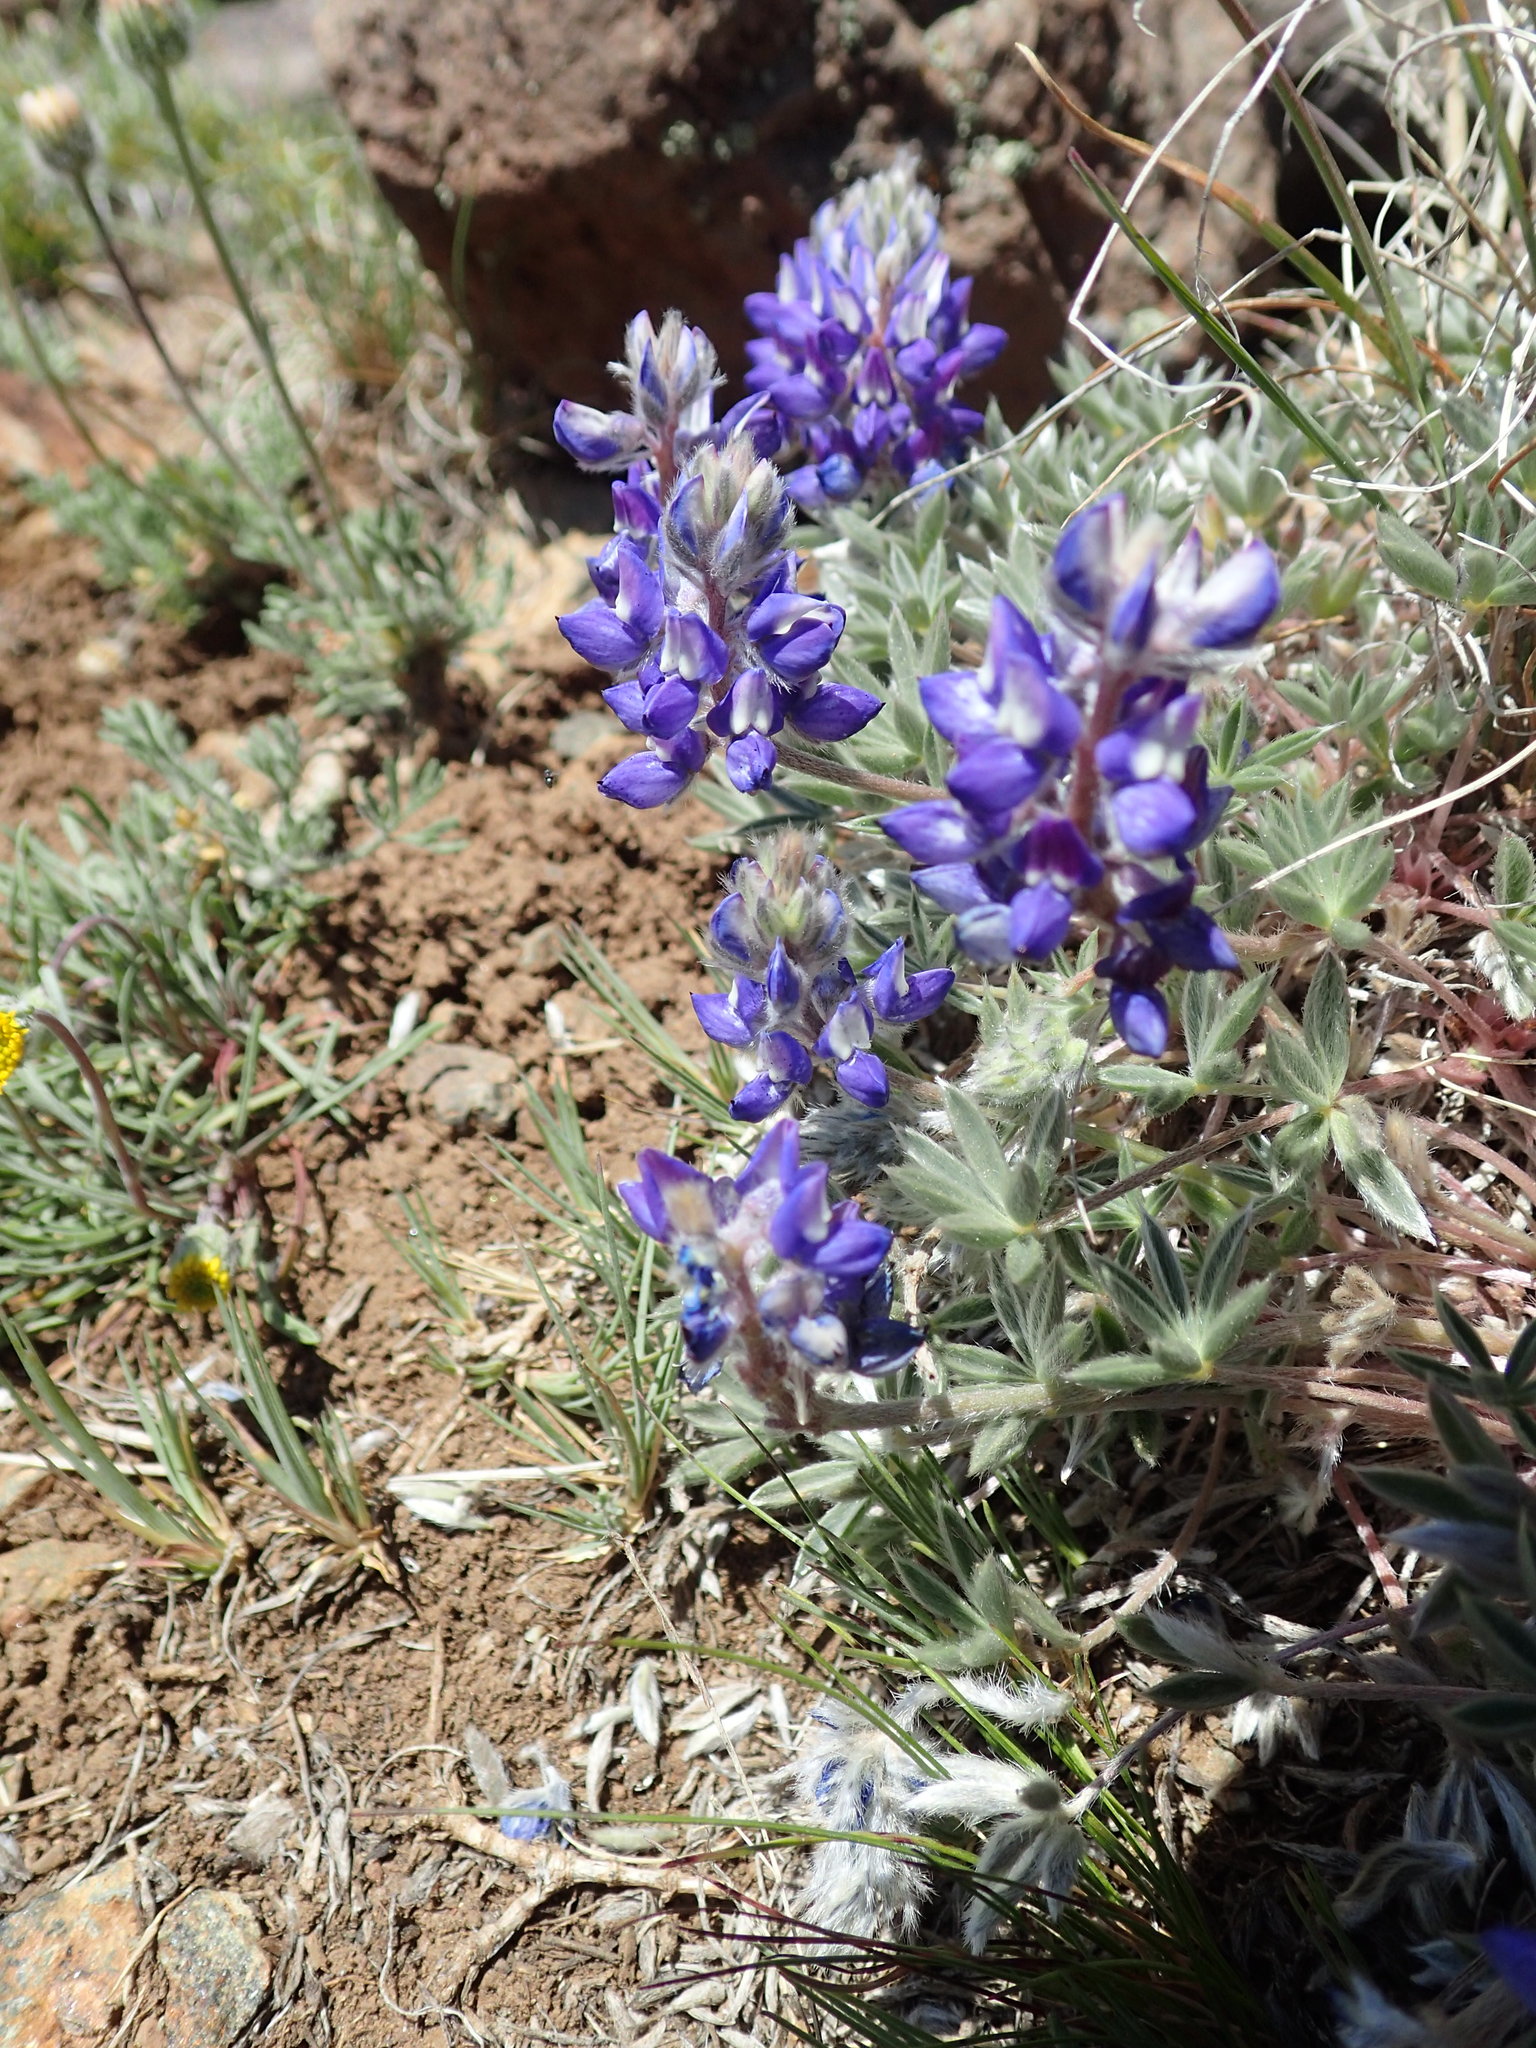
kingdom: Plantae
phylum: Tracheophyta
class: Magnoliopsida
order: Fabales
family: Fabaceae
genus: Lupinus
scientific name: Lupinus sellulus
